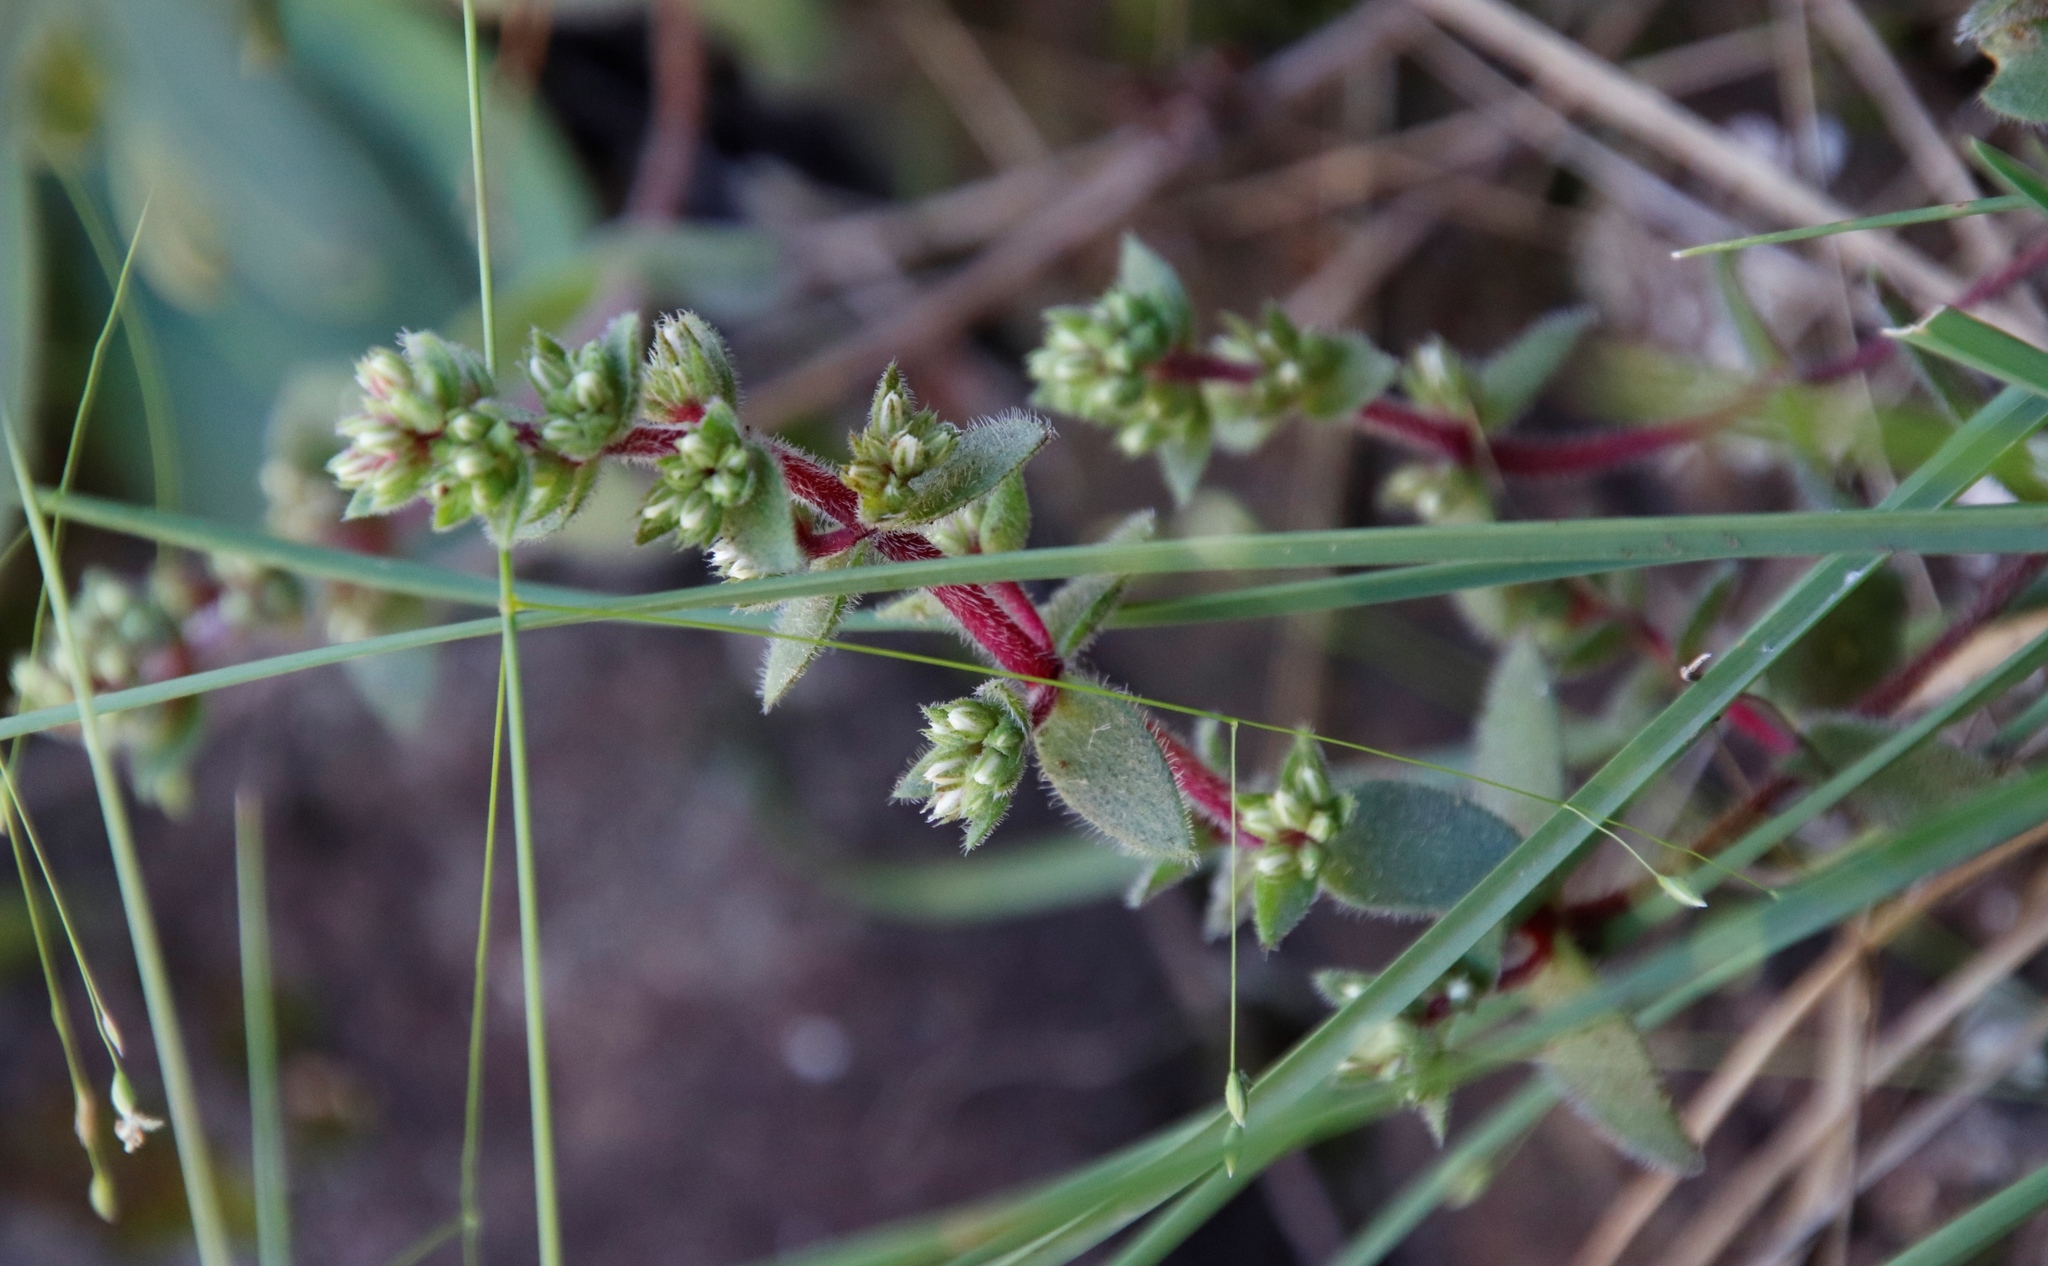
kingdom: Plantae
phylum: Tracheophyta
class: Magnoliopsida
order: Saxifragales
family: Crassulaceae
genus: Crassula
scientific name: Crassula obovata
